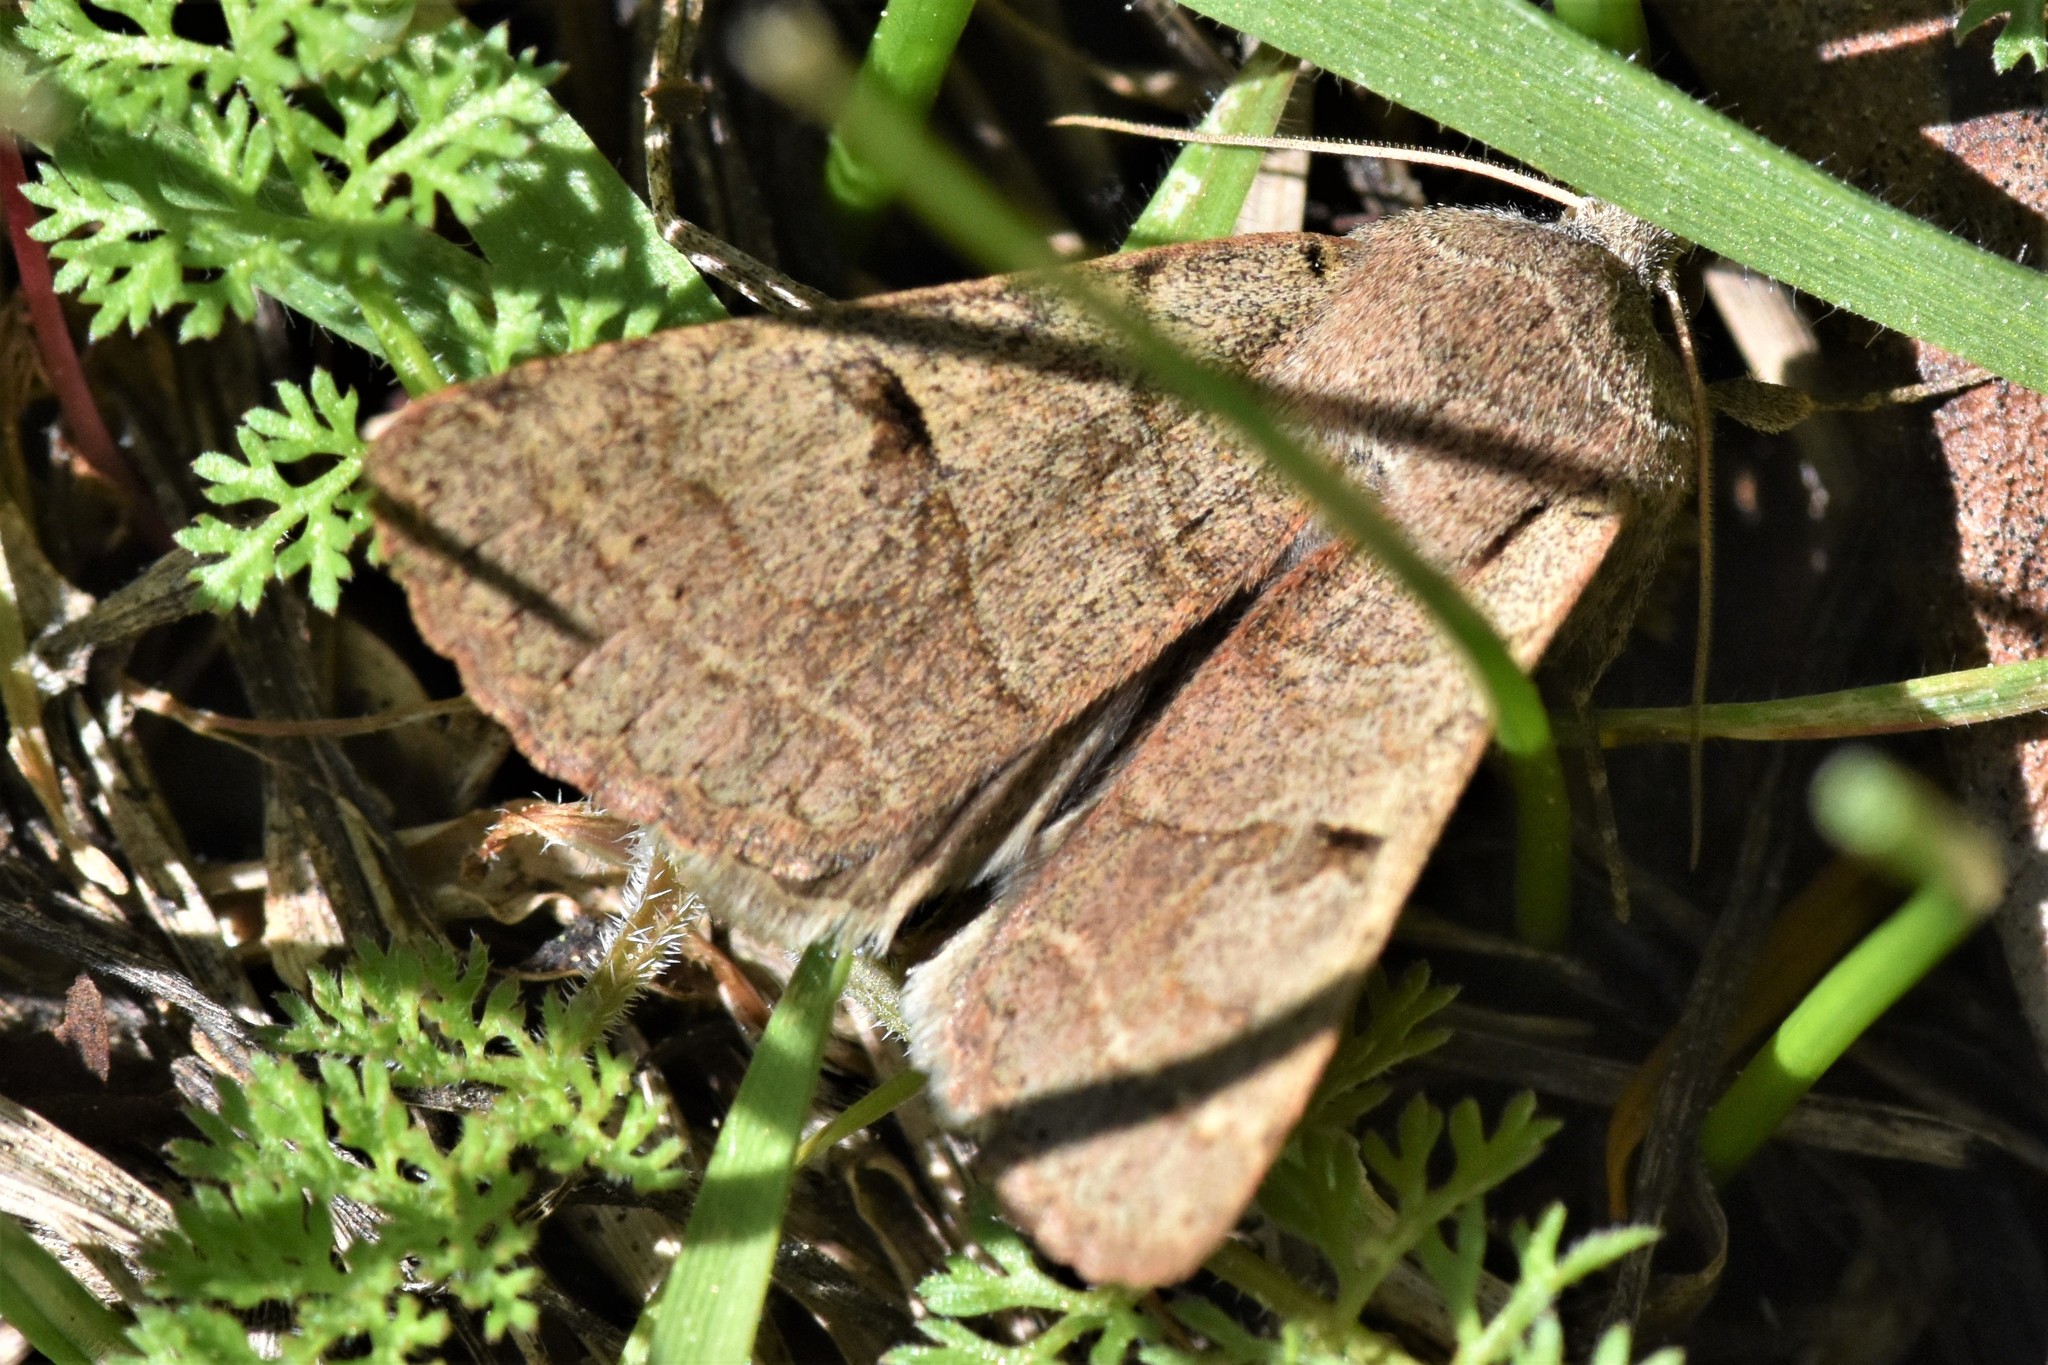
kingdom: Animalia
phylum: Arthropoda
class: Insecta
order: Lepidoptera
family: Erebidae
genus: Cissusa
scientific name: Cissusa indiscreta
